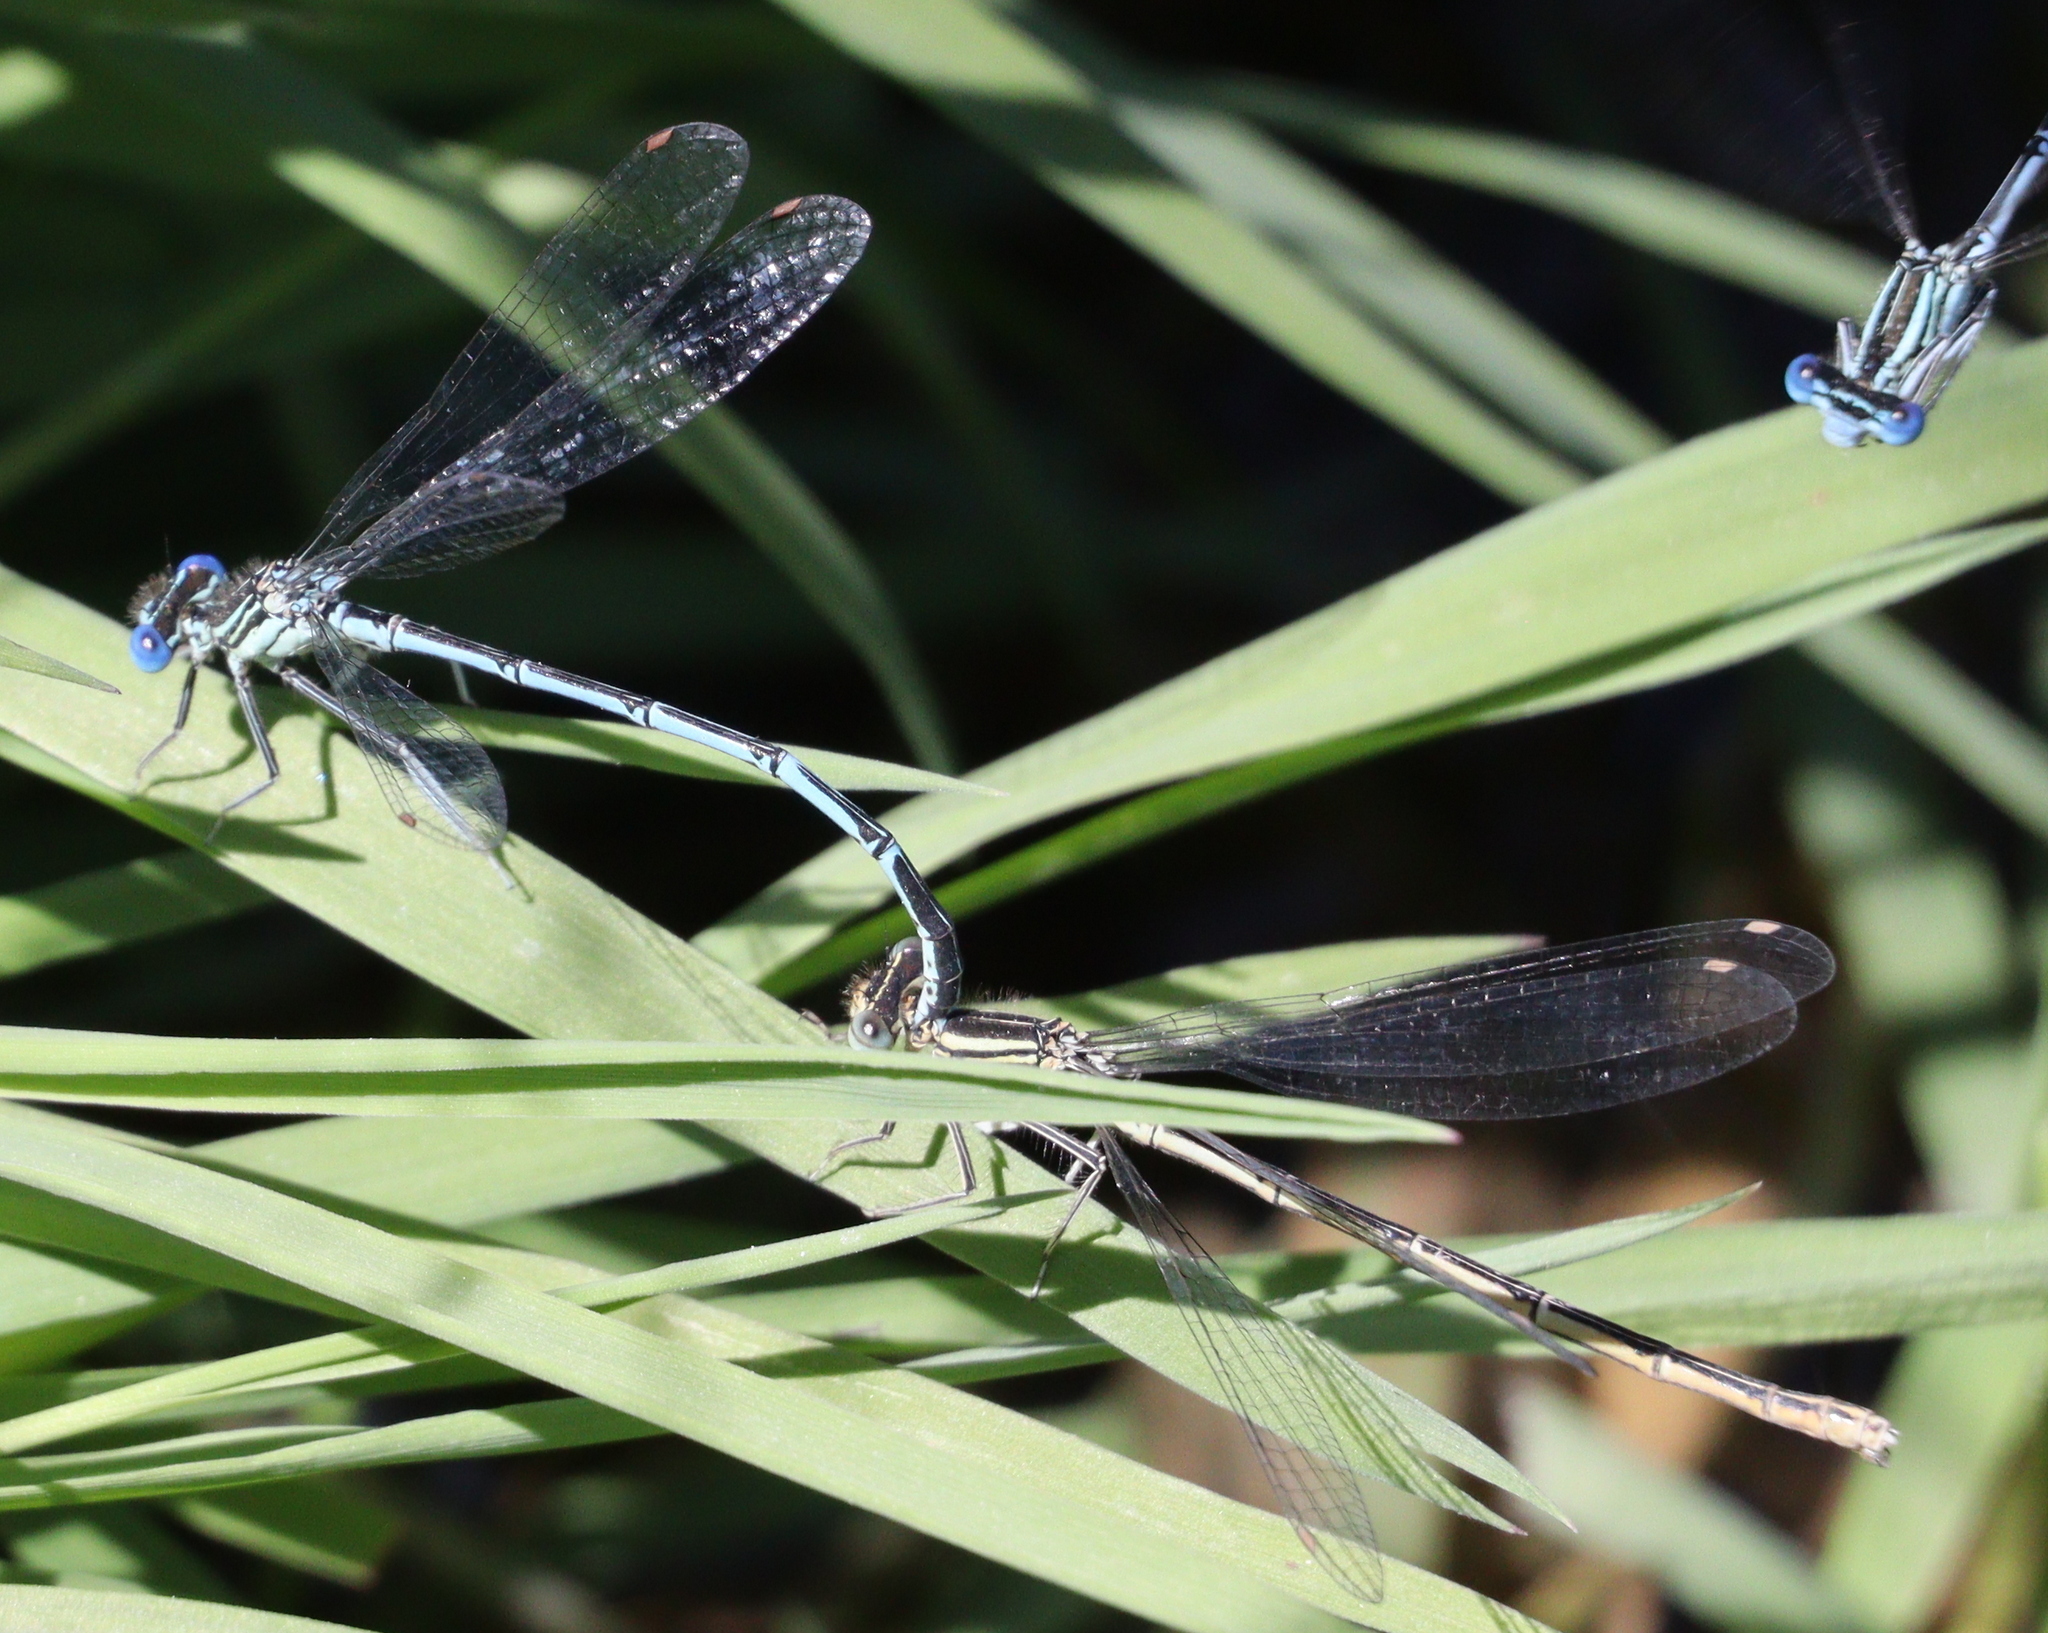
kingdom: Animalia
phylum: Arthropoda
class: Insecta
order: Odonata
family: Platycnemididae
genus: Platycnemis
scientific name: Platycnemis pennipes
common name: White-legged damselfly
